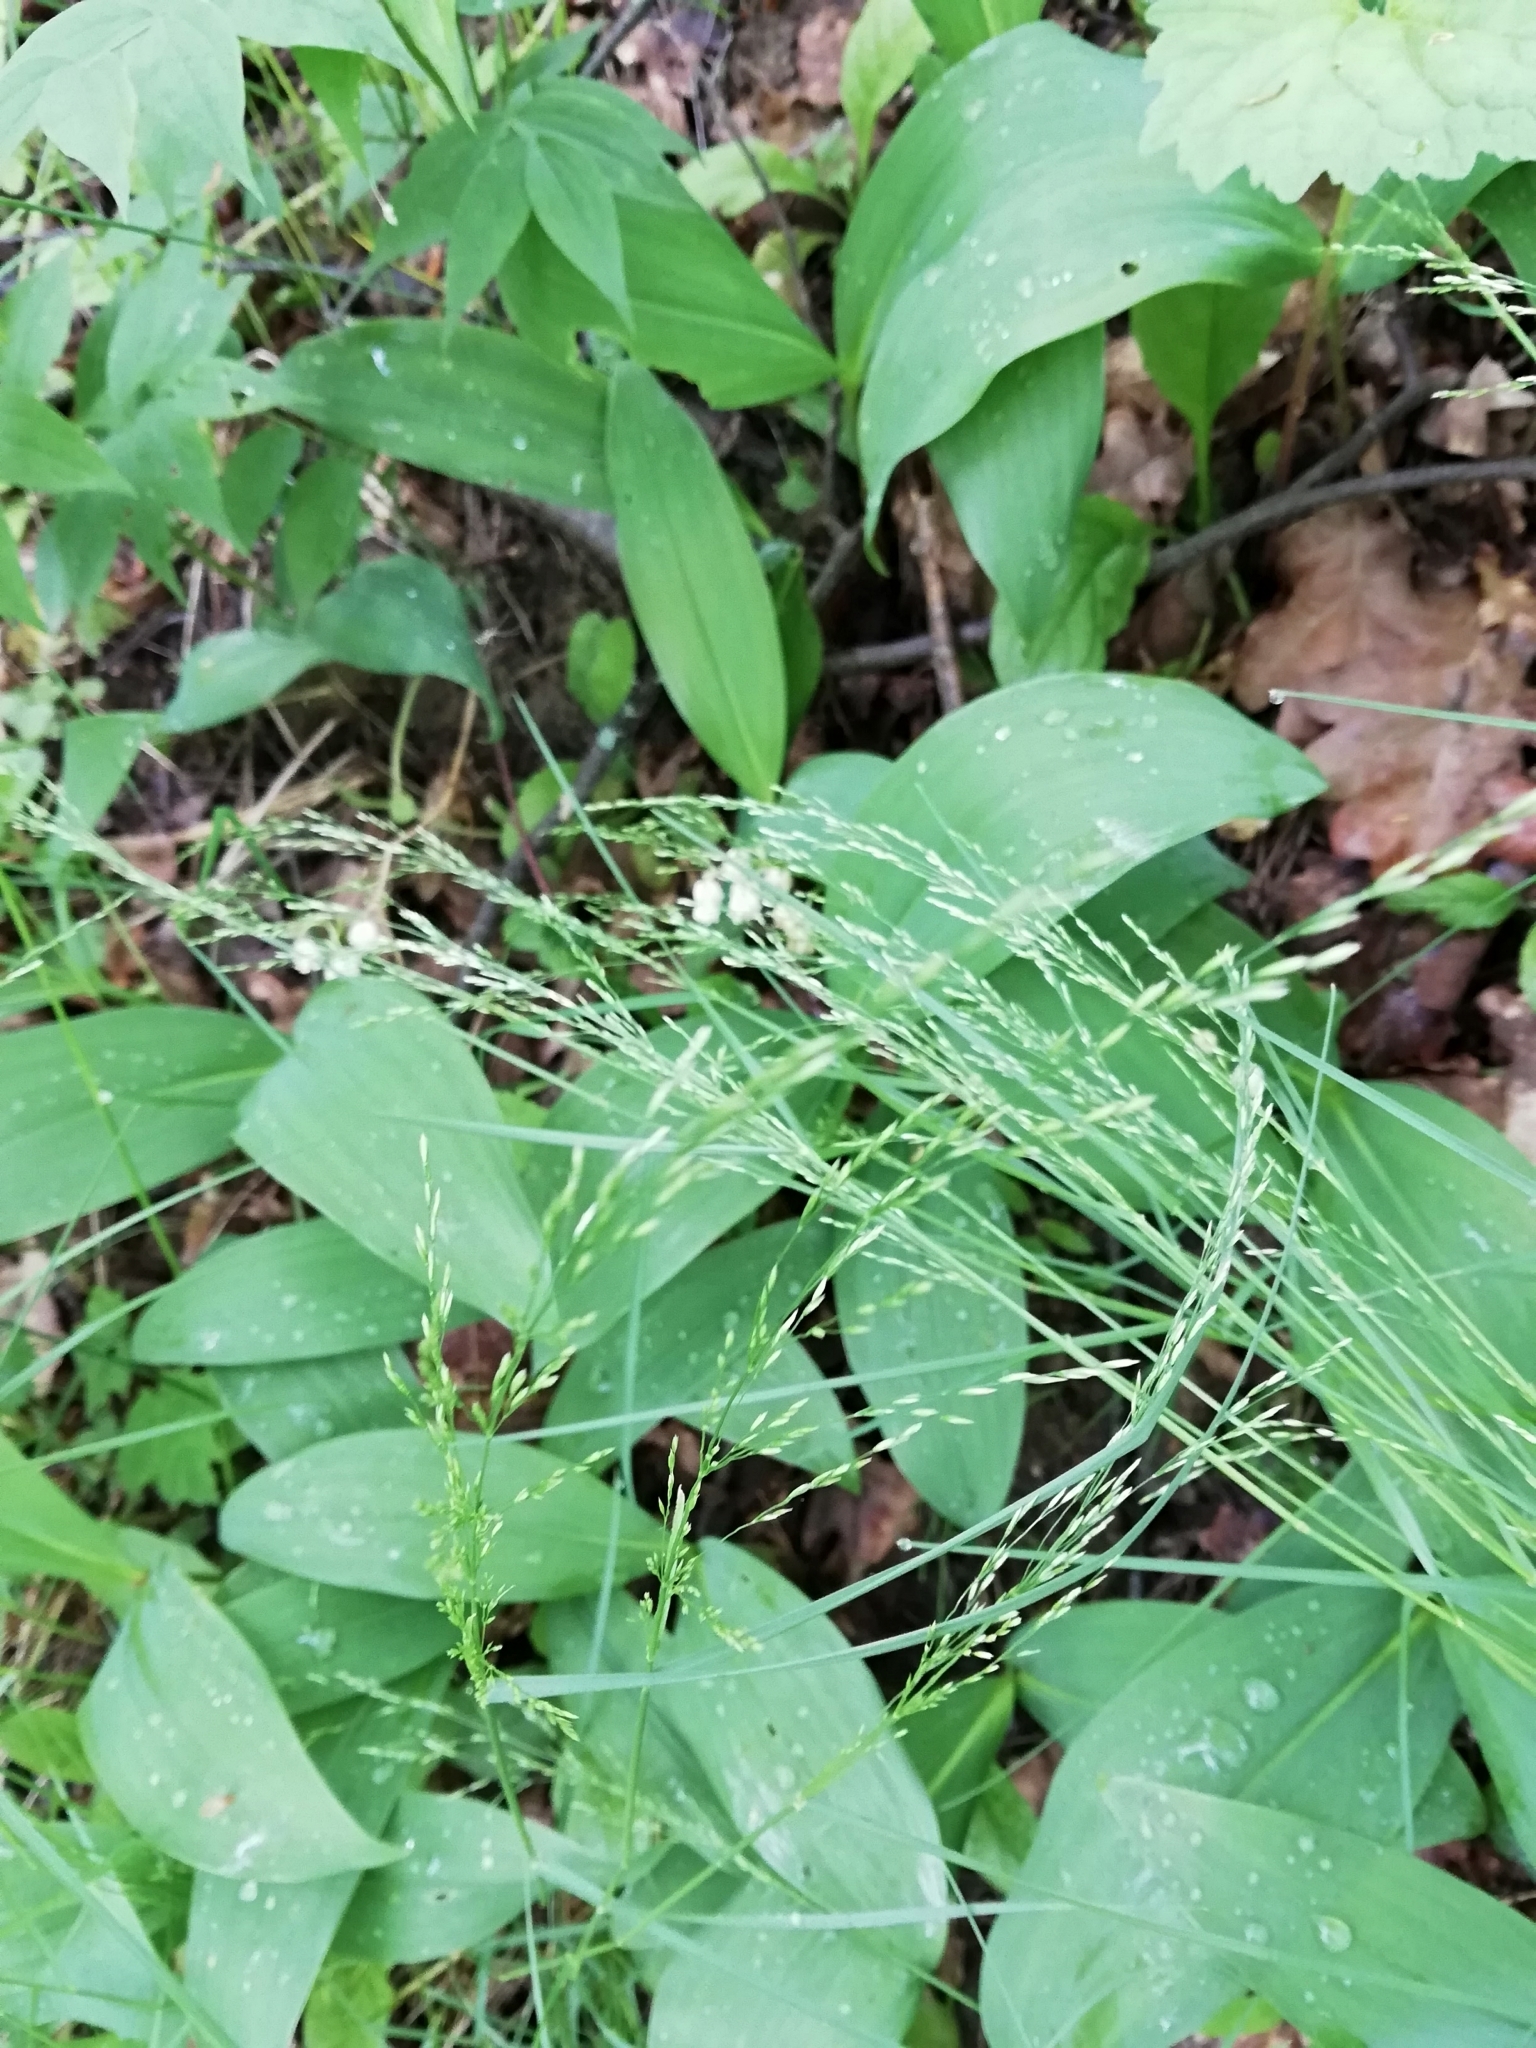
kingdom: Plantae
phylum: Tracheophyta
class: Liliopsida
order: Poales
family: Poaceae
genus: Poa
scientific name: Poa nemoralis
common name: Wood bluegrass
